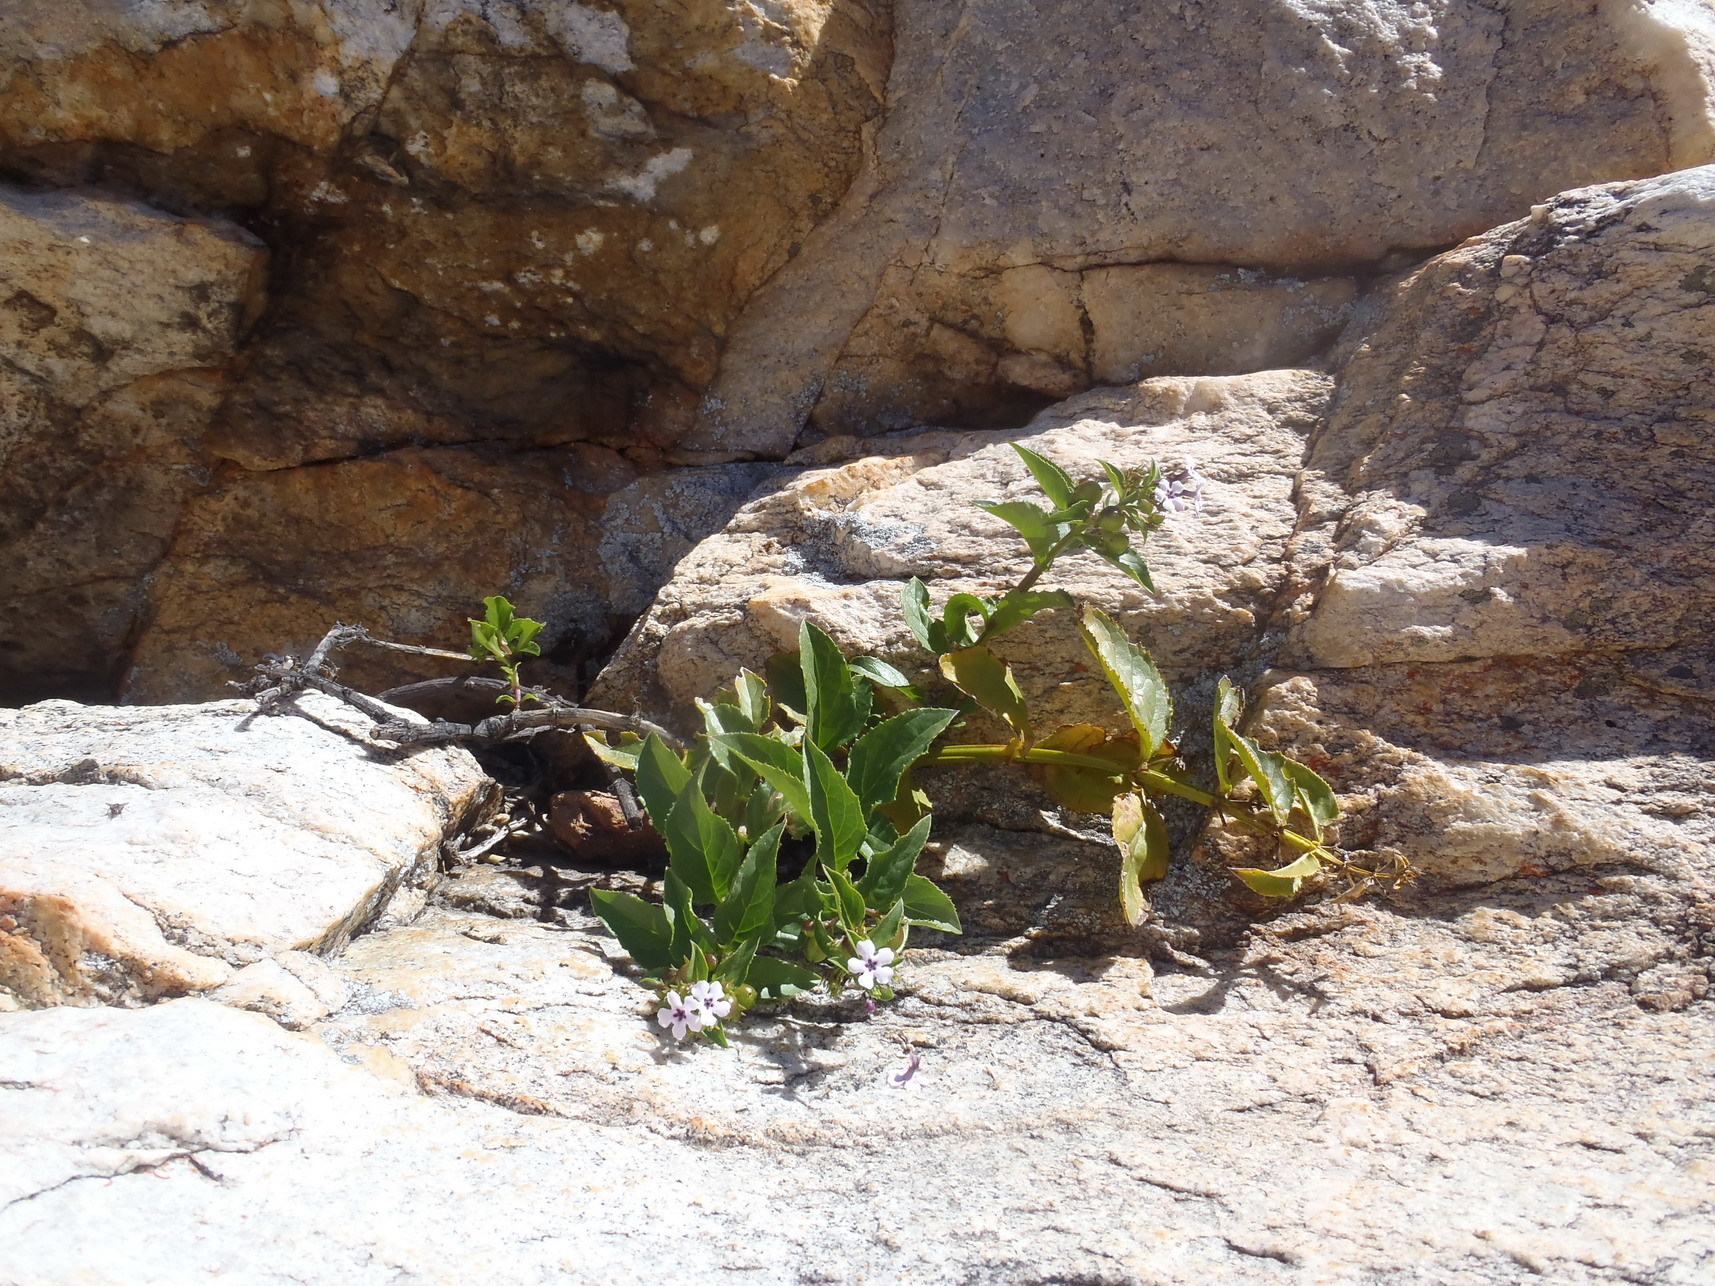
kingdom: Plantae
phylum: Tracheophyta
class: Magnoliopsida
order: Lamiales
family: Scrophulariaceae
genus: Teedia
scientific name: Teedia lucida
